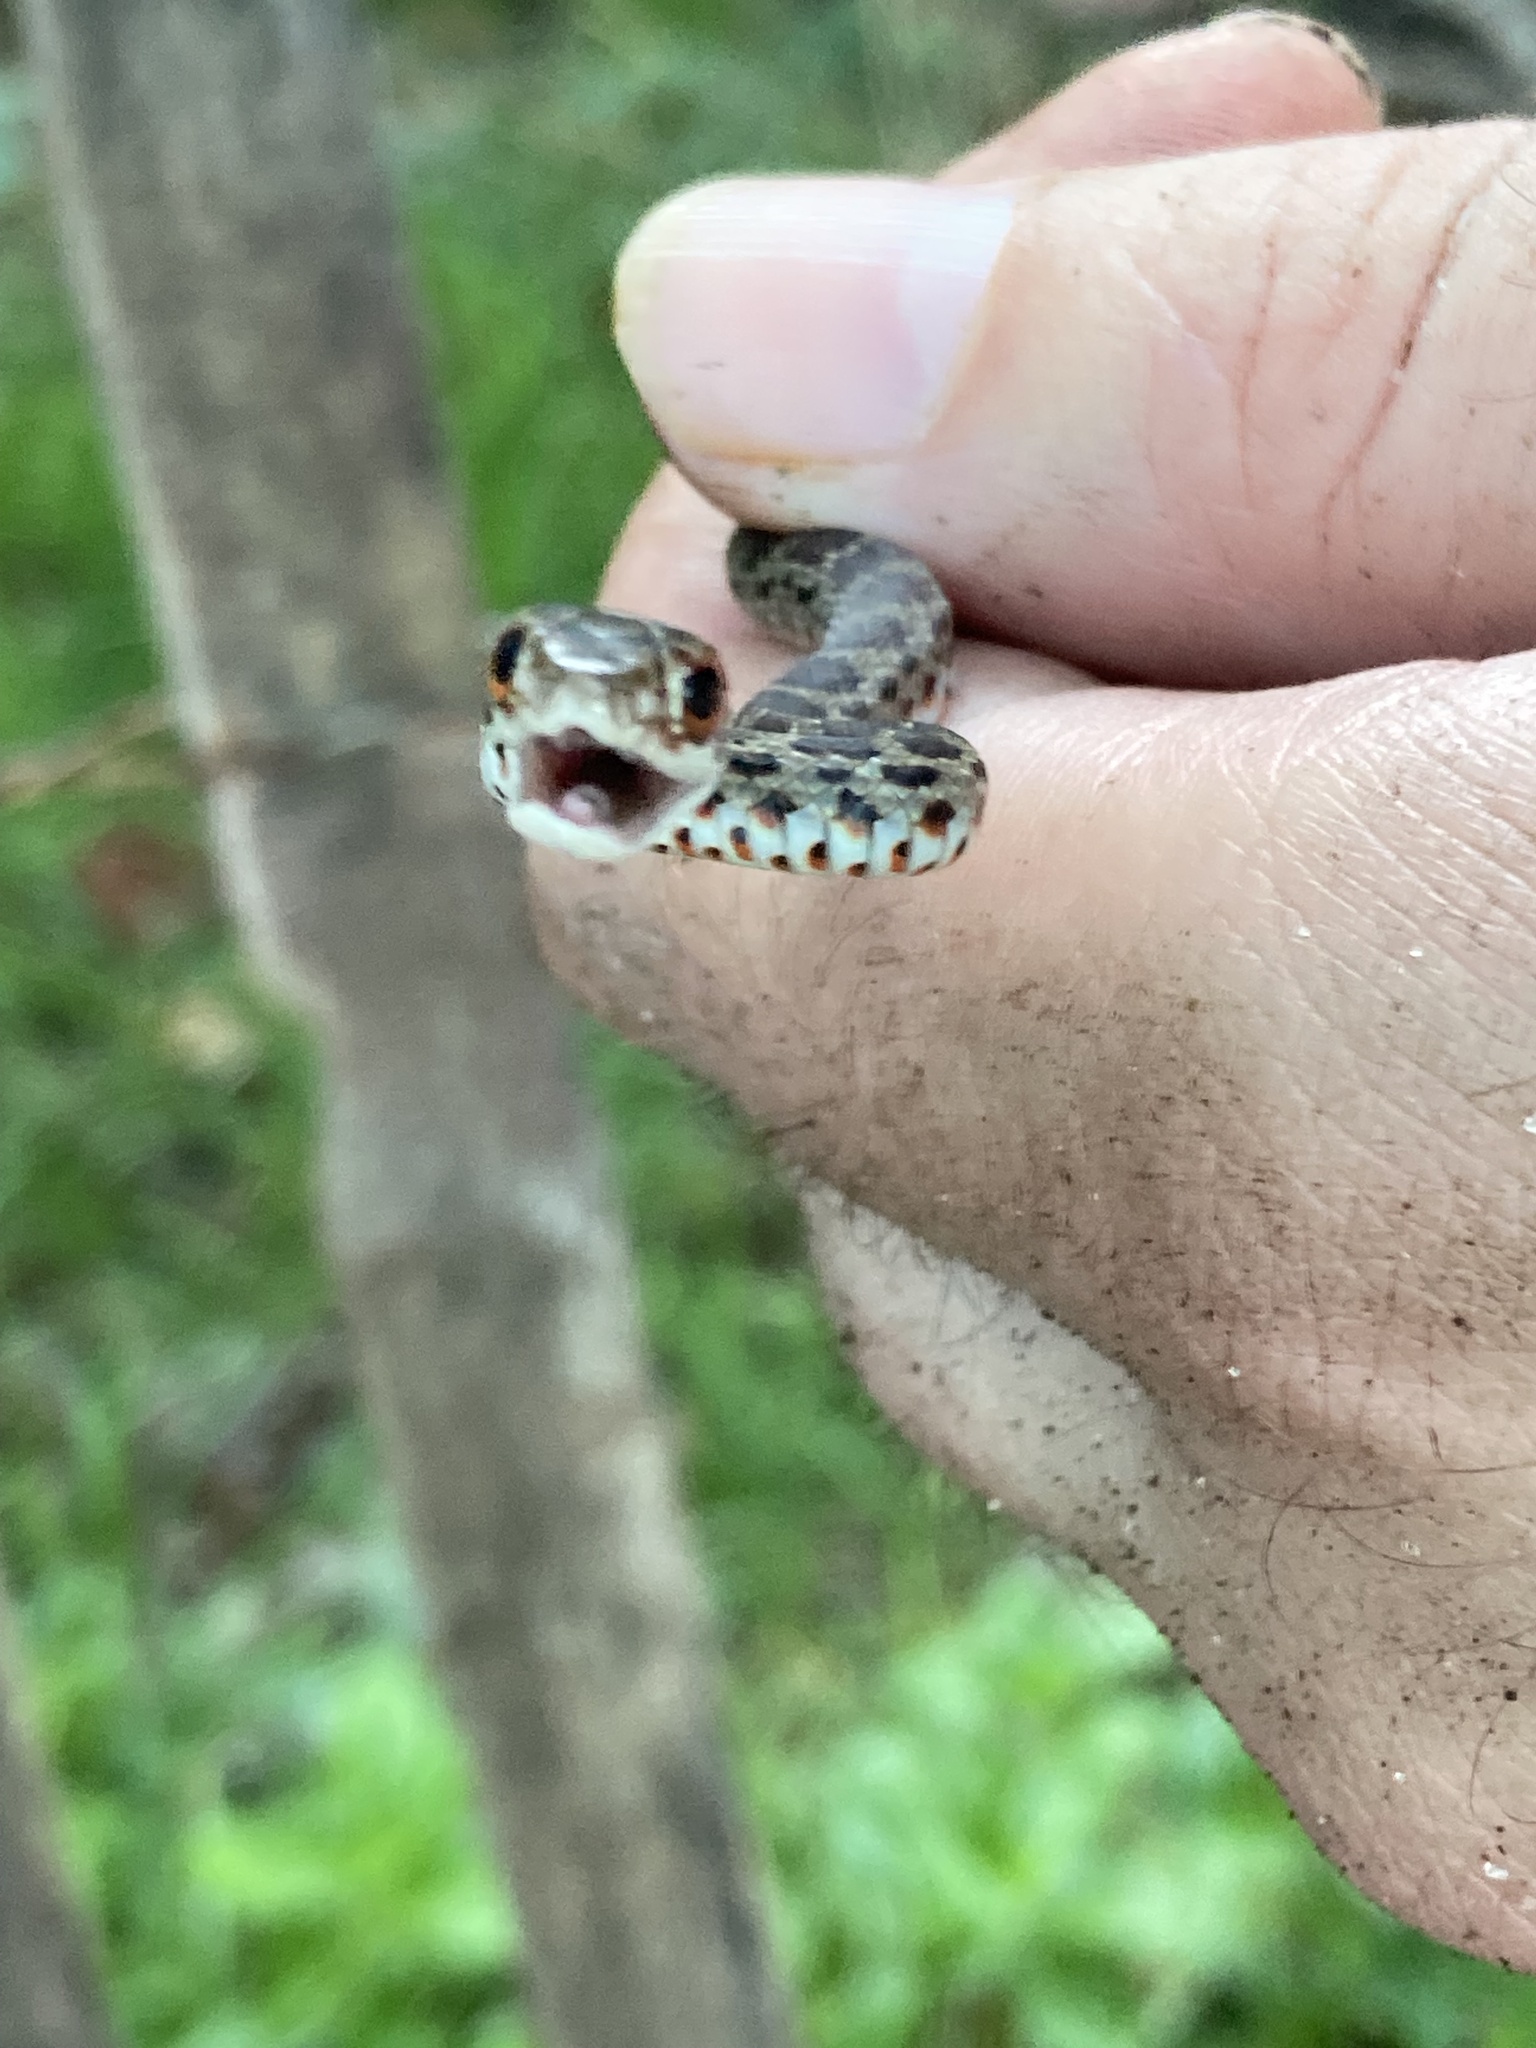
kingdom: Animalia
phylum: Chordata
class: Squamata
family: Colubridae
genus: Coluber
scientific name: Coluber constrictor
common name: Eastern racer
